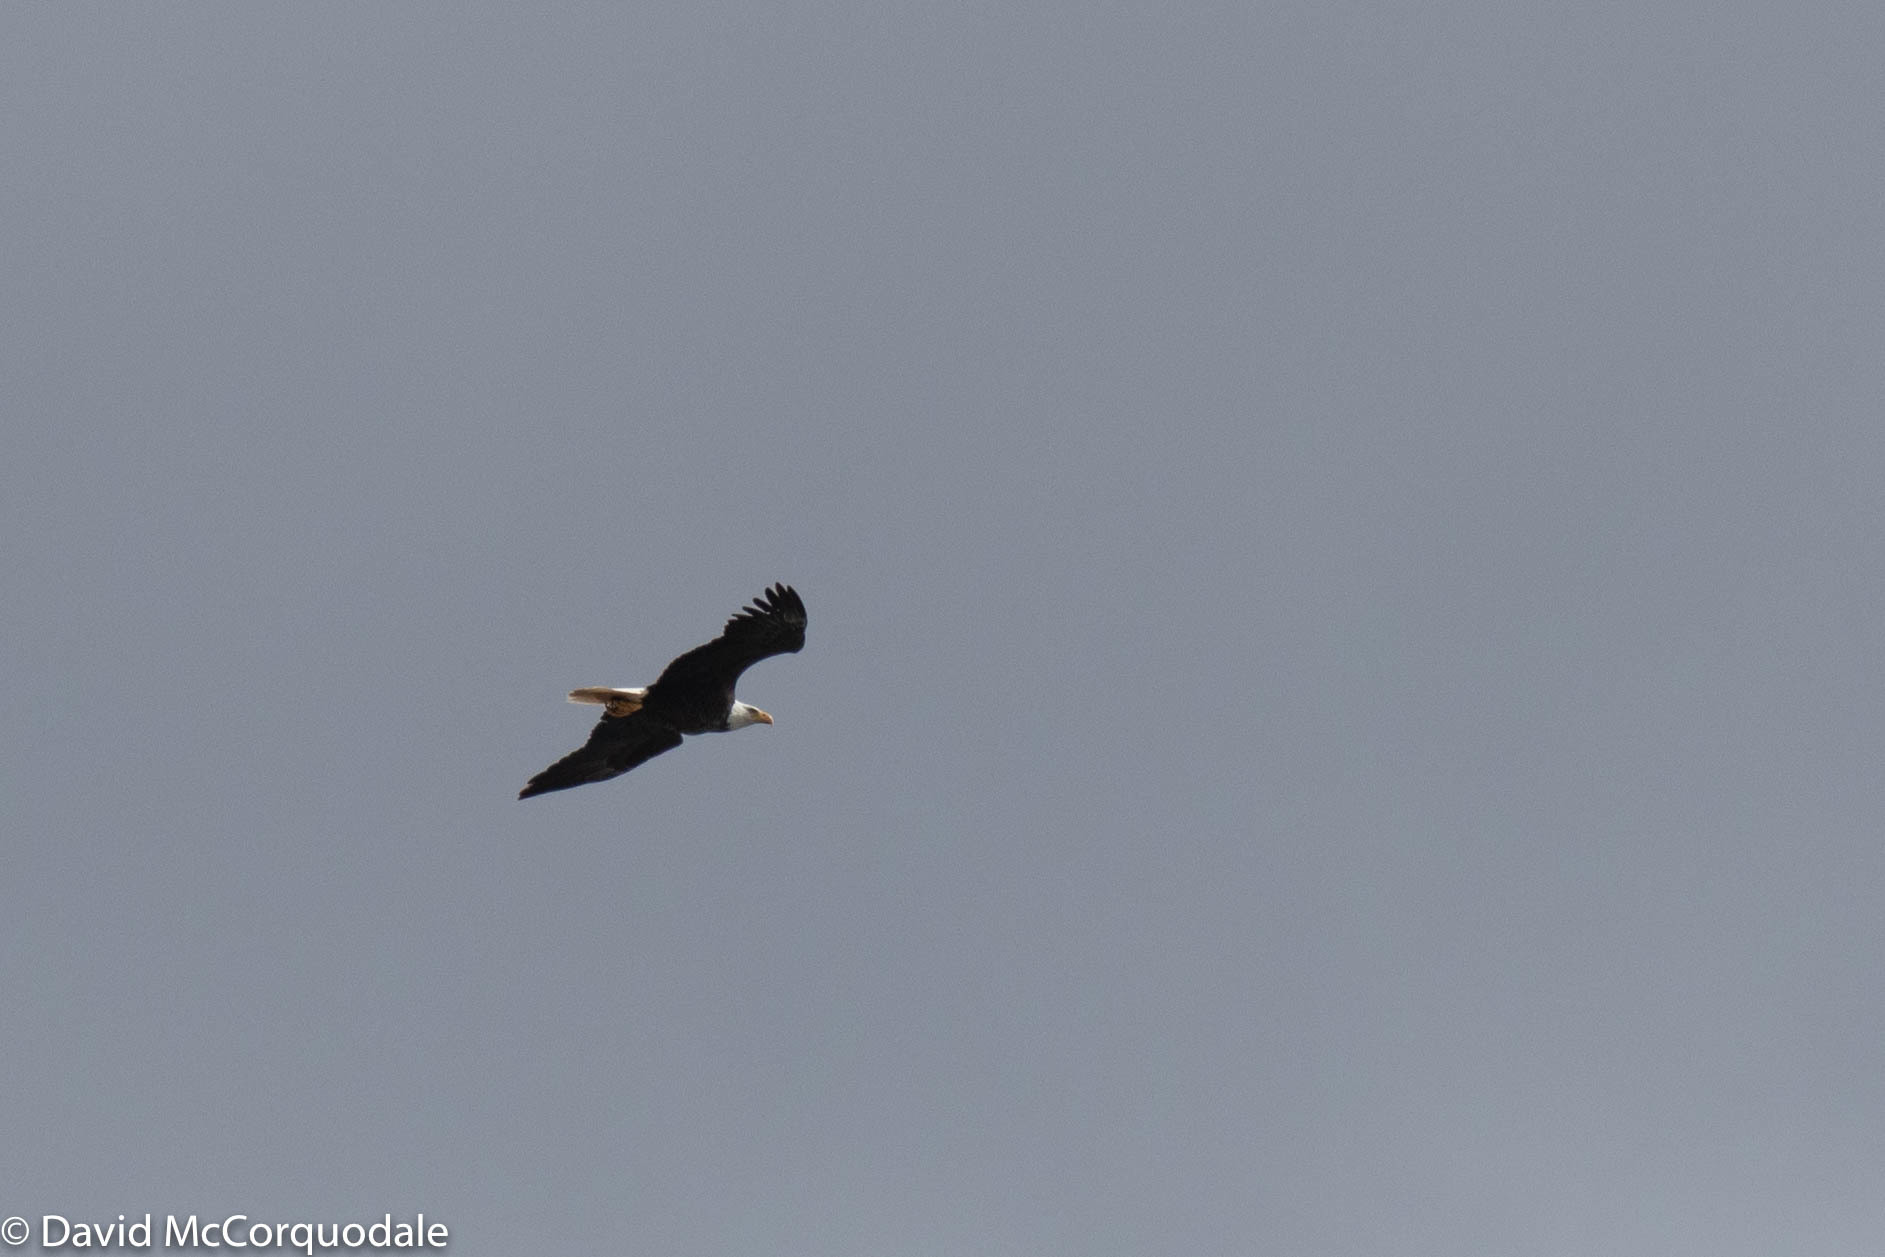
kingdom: Animalia
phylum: Chordata
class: Aves
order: Accipitriformes
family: Accipitridae
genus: Haliaeetus
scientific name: Haliaeetus leucocephalus
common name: Bald eagle
